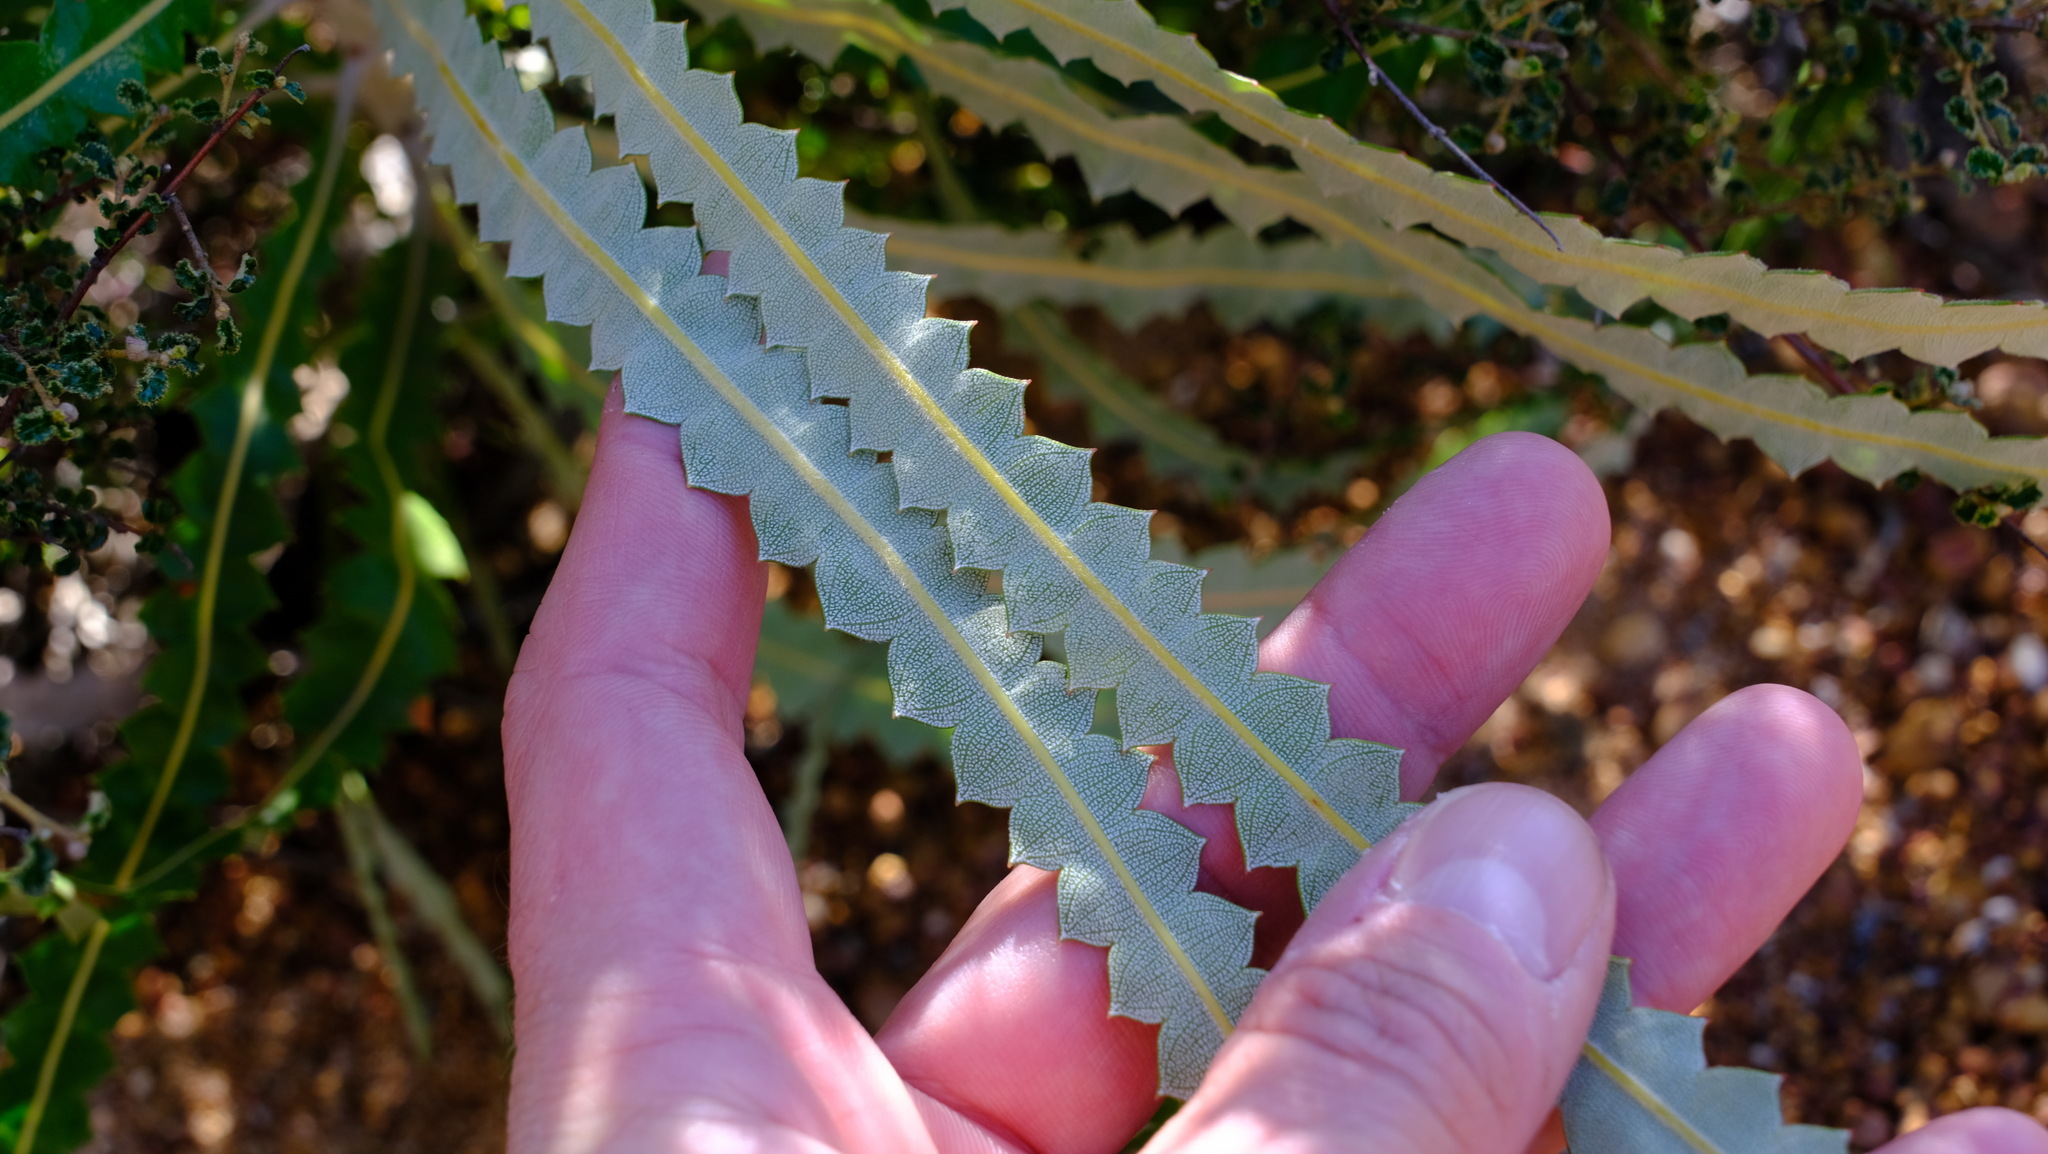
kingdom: Plantae
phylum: Tracheophyta
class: Magnoliopsida
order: Proteales
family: Proteaceae
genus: Banksia
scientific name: Banksia prionotes
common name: Acorn banksia
